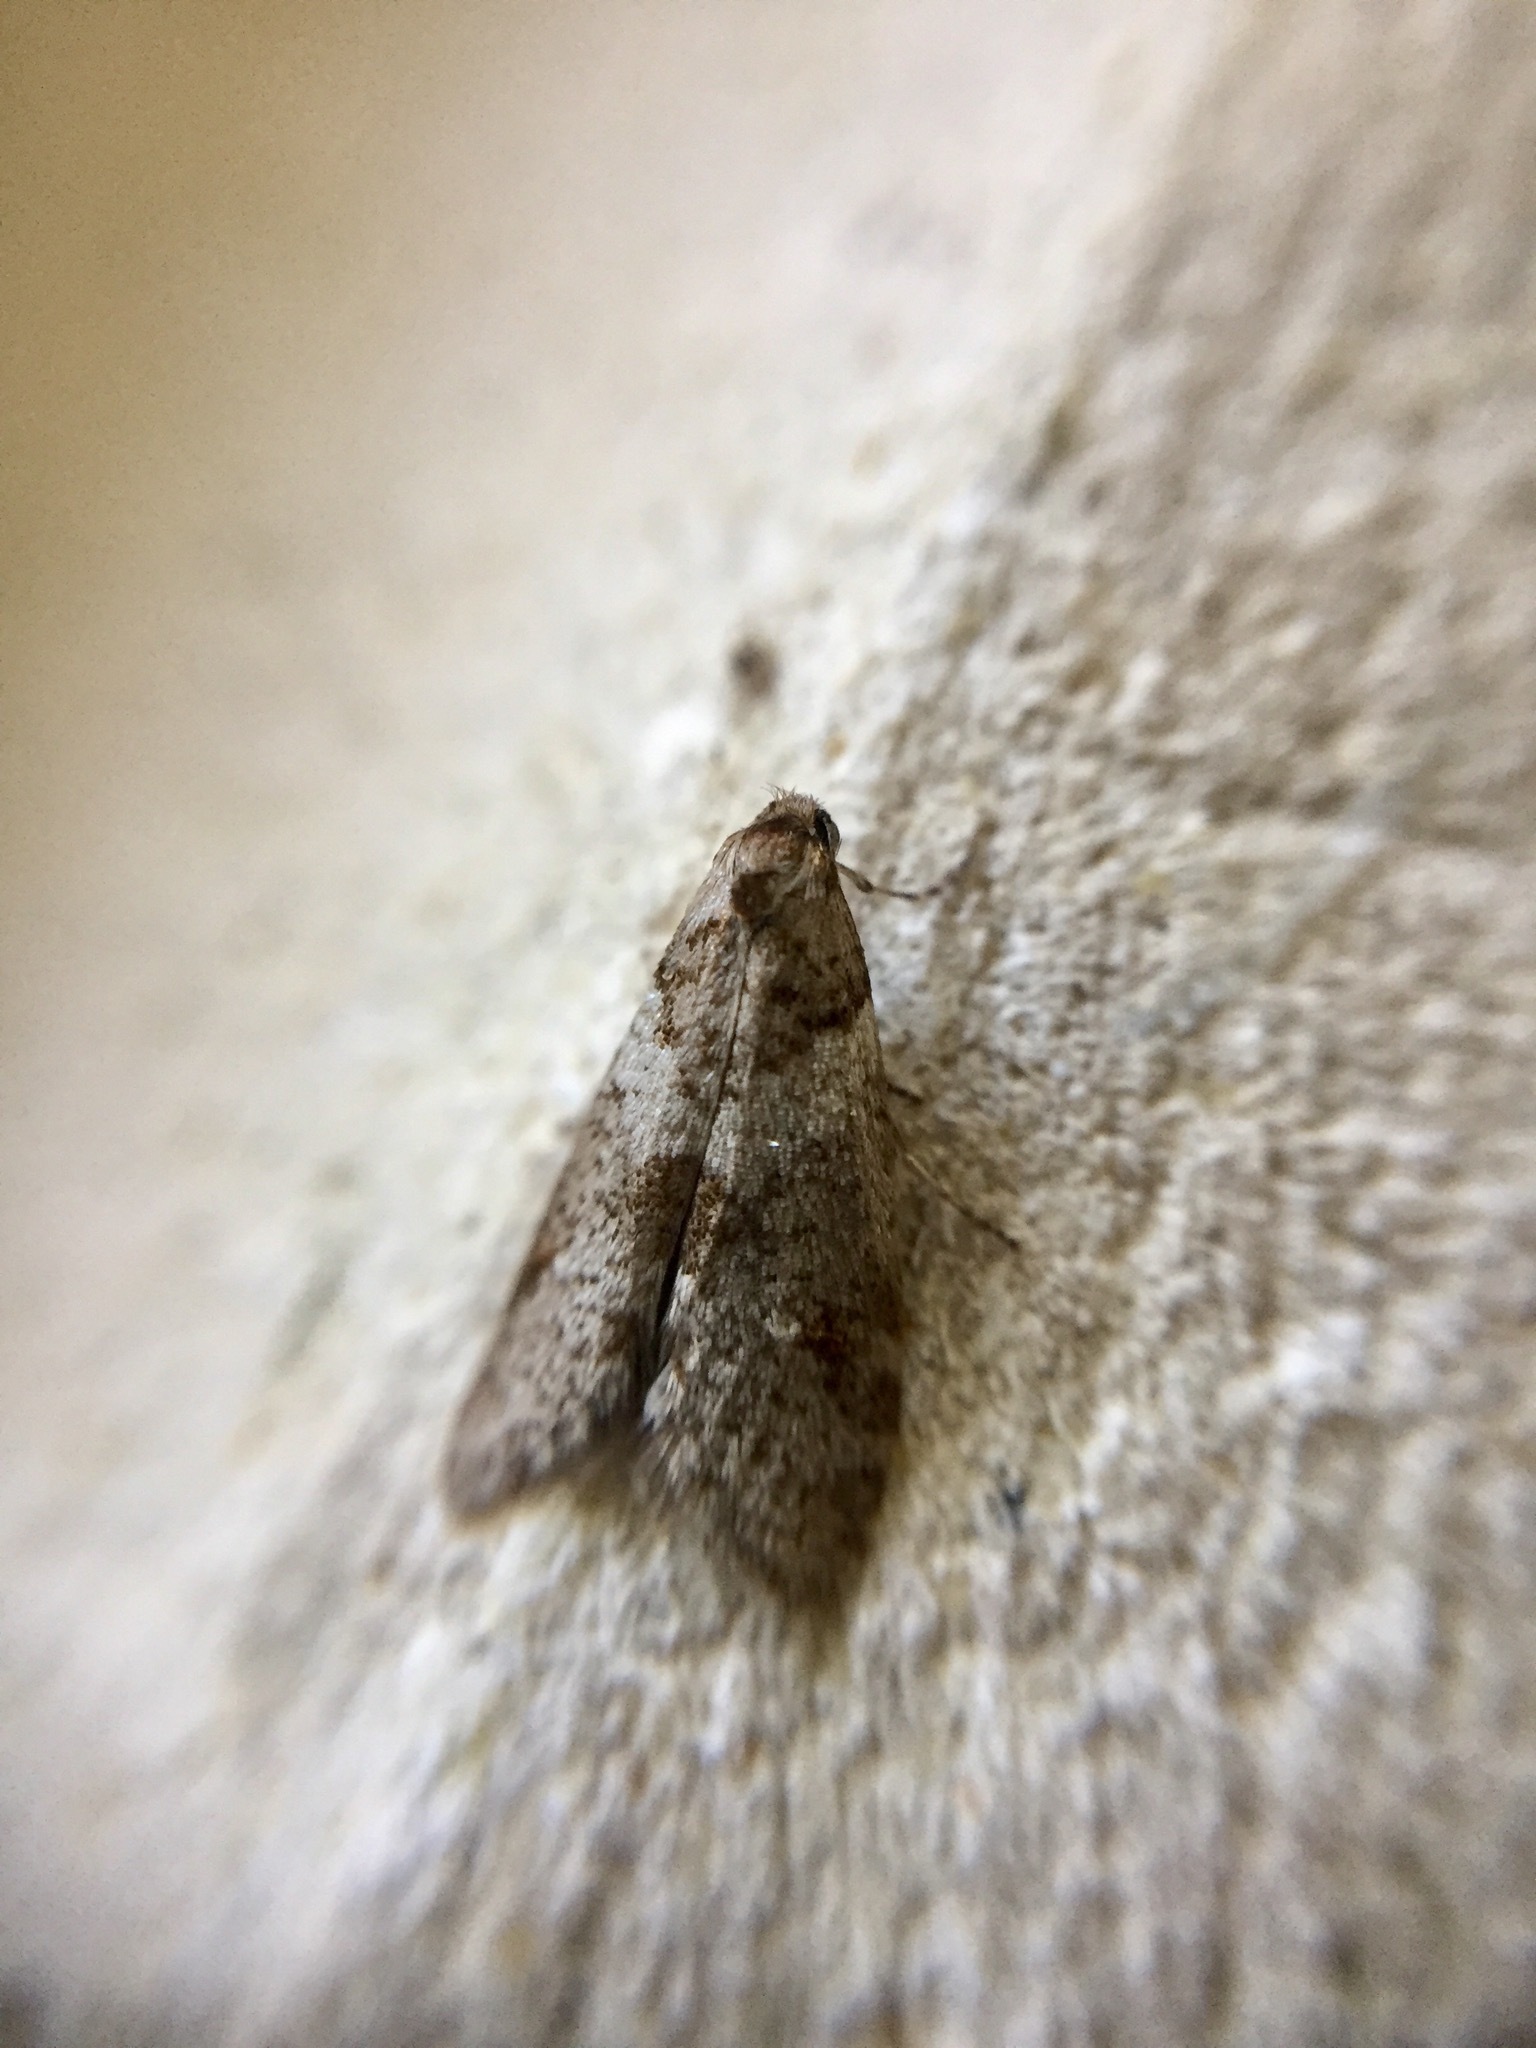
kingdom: Animalia
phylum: Arthropoda
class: Insecta
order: Lepidoptera
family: Psychidae
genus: Lepidoscia
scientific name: Lepidoscia heliochares
